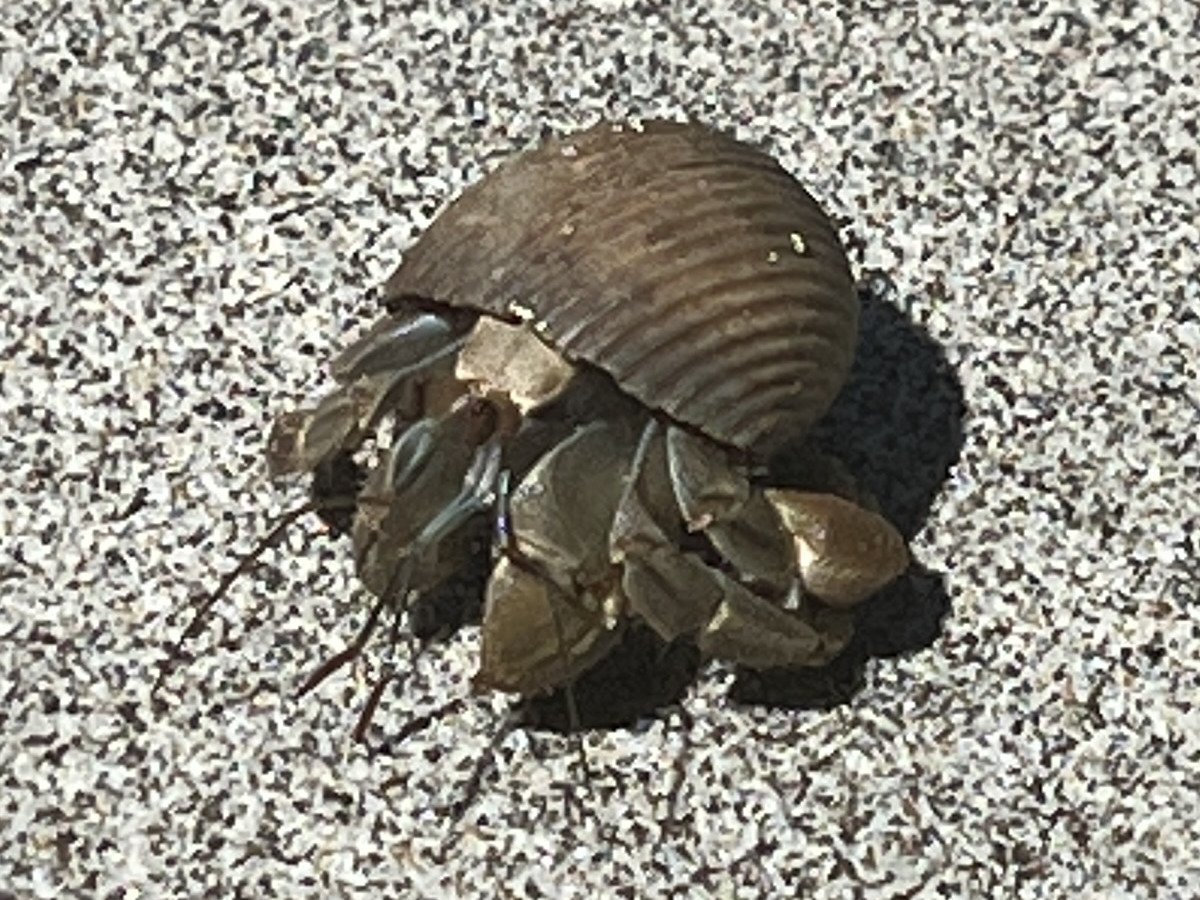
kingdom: Animalia
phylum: Arthropoda
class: Malacostraca
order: Decapoda
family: Coenobitidae
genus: Coenobita
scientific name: Coenobita compressus
